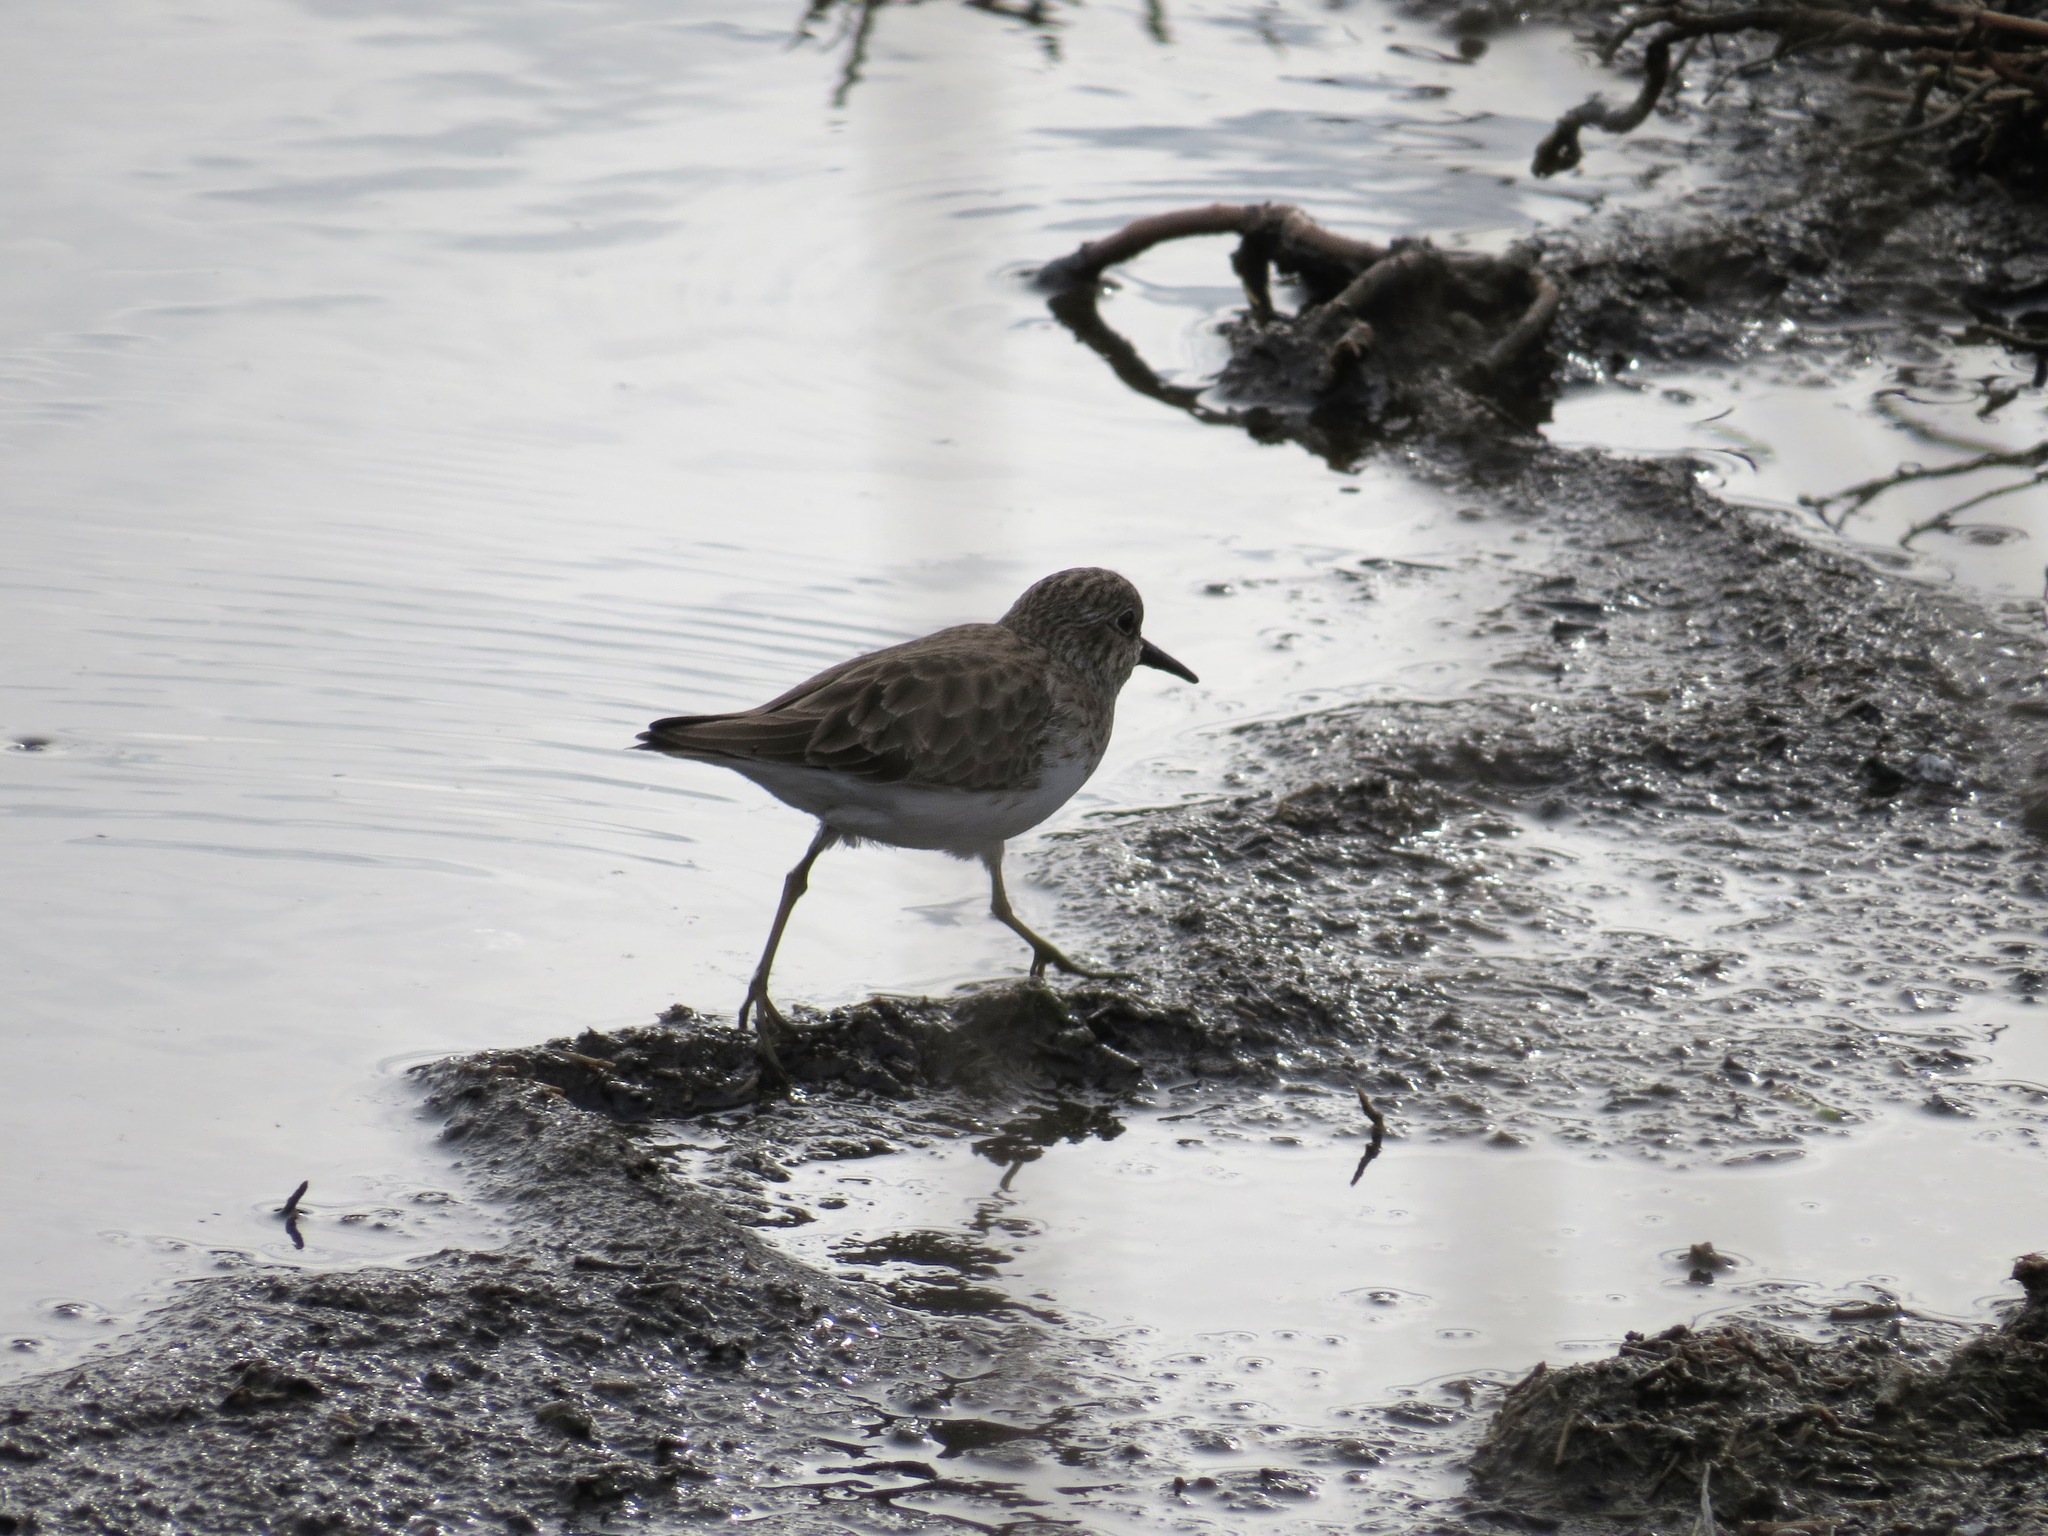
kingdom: Animalia
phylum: Chordata
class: Aves
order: Charadriiformes
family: Scolopacidae
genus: Calidris
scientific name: Calidris minutilla
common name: Least sandpiper
